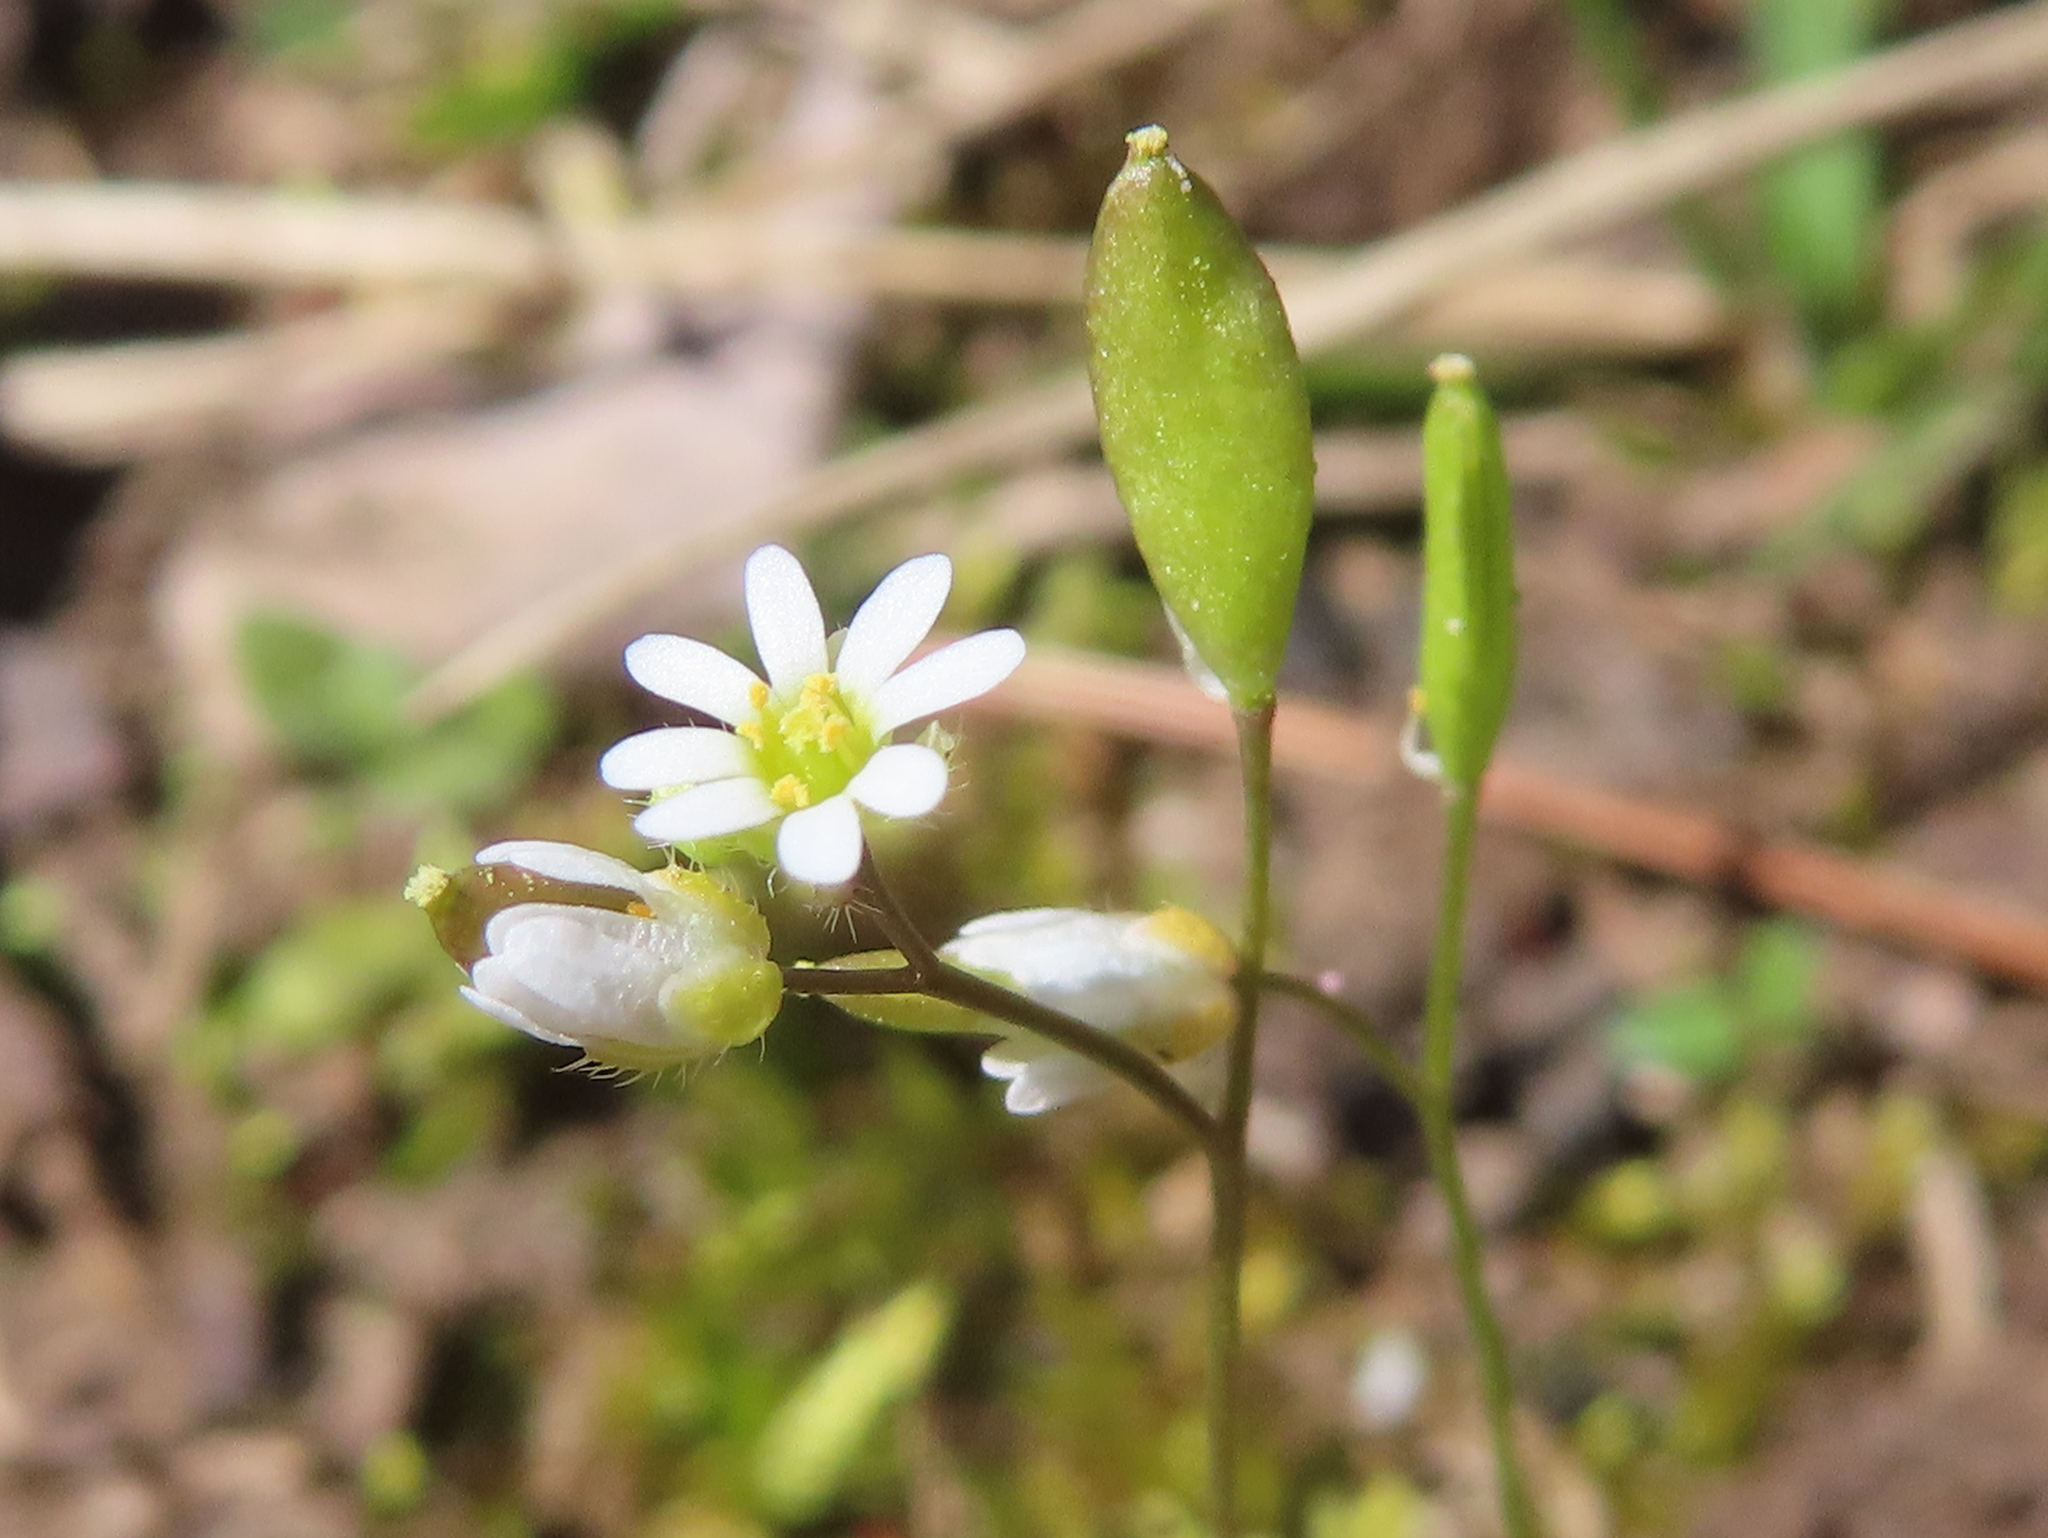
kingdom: Plantae
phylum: Tracheophyta
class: Magnoliopsida
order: Brassicales
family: Brassicaceae
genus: Draba
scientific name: Draba verna
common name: Spring draba
